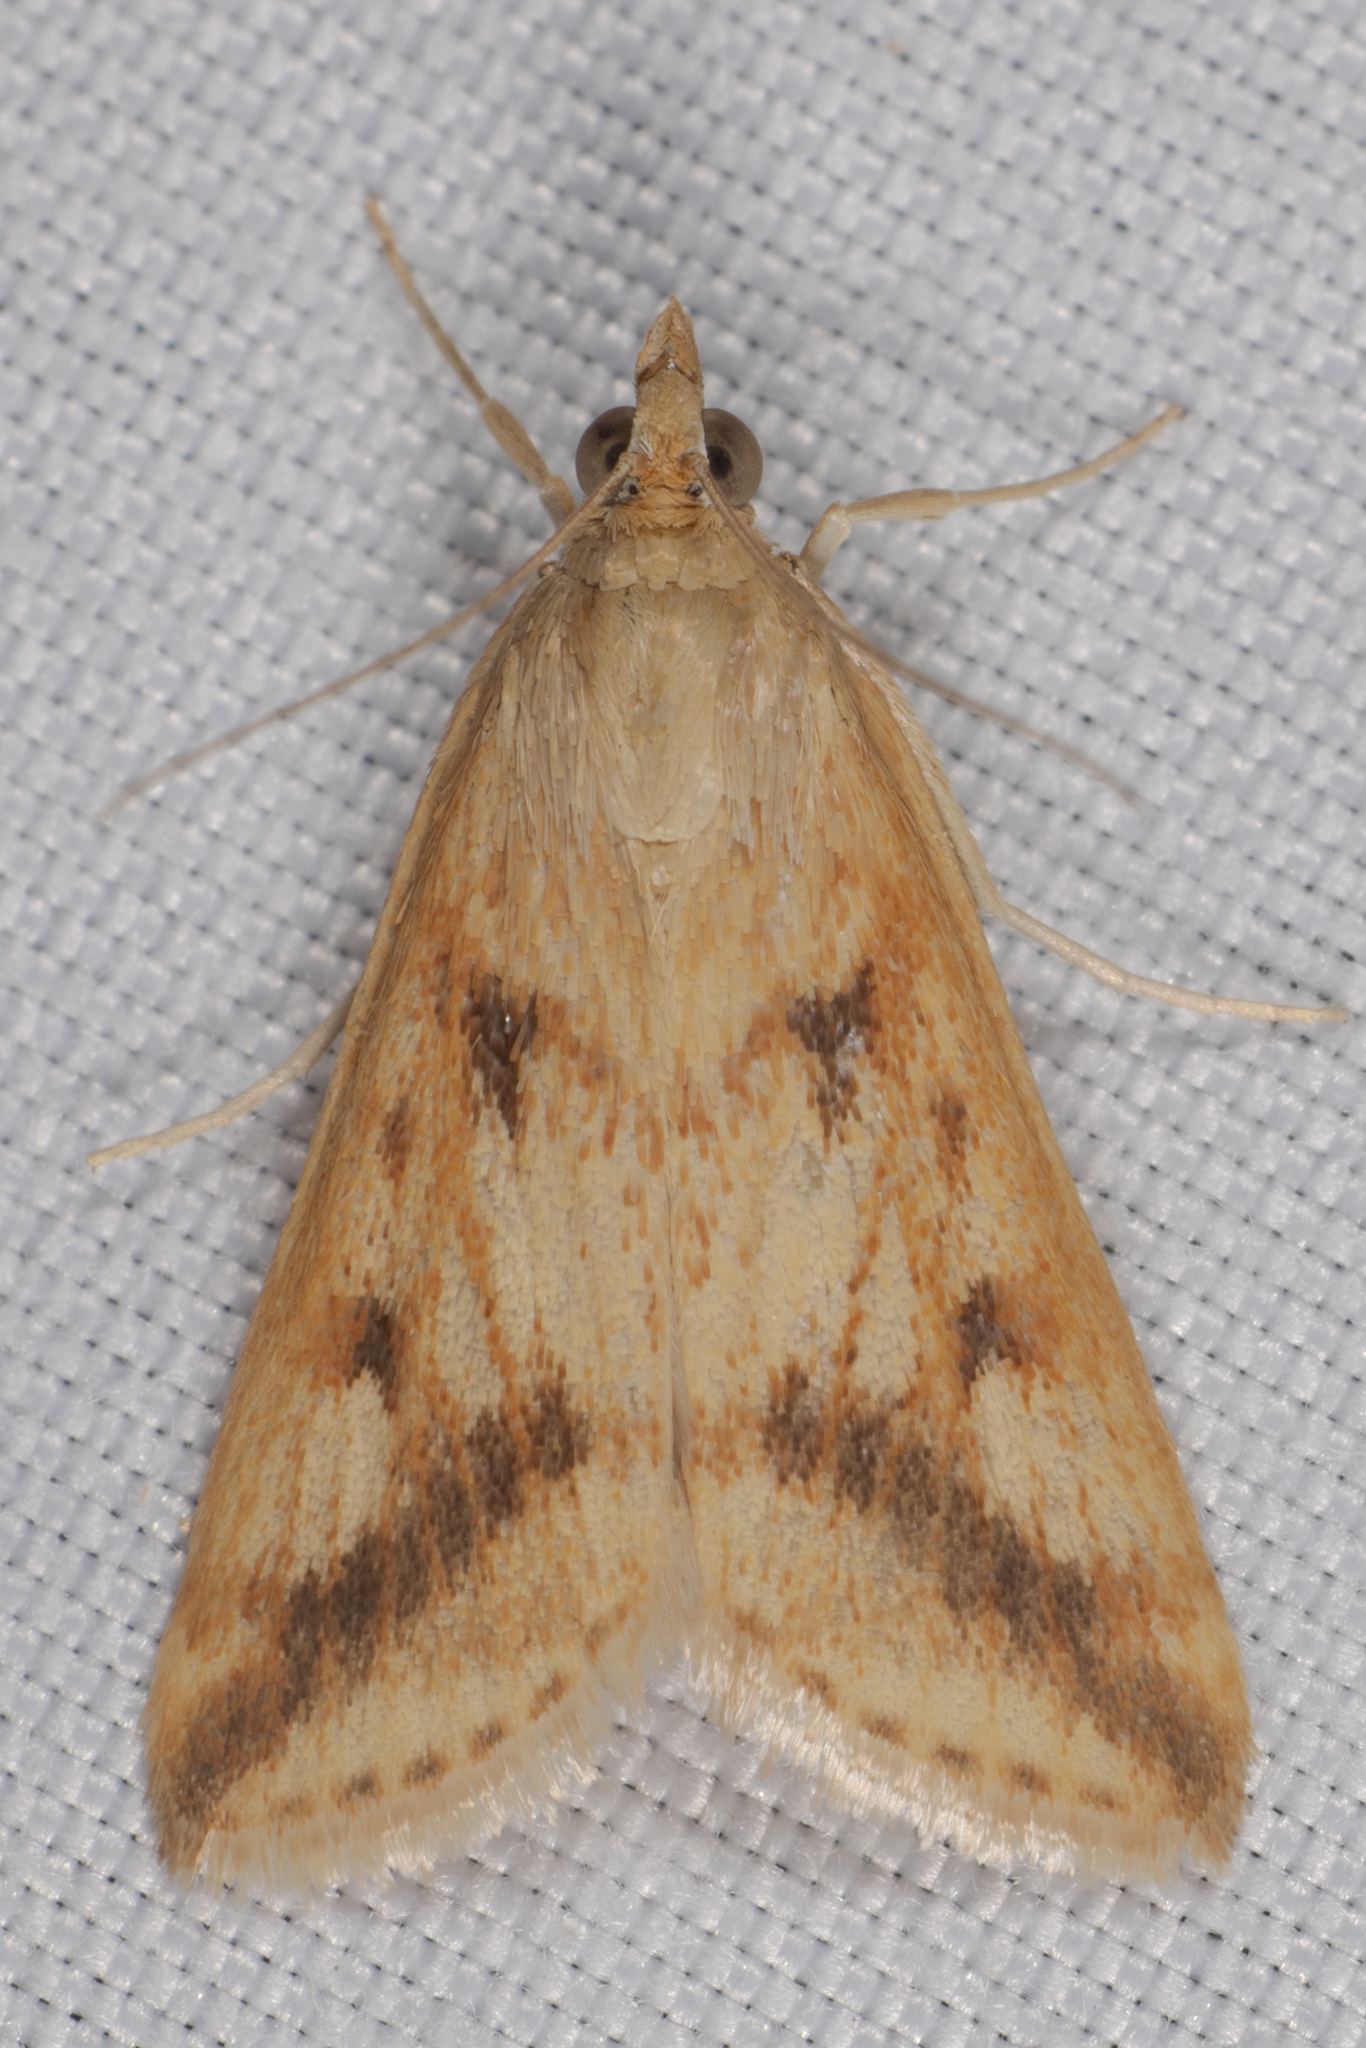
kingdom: Animalia
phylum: Arthropoda
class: Insecta
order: Lepidoptera
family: Crambidae
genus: Achyra
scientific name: Achyra bifidalis
